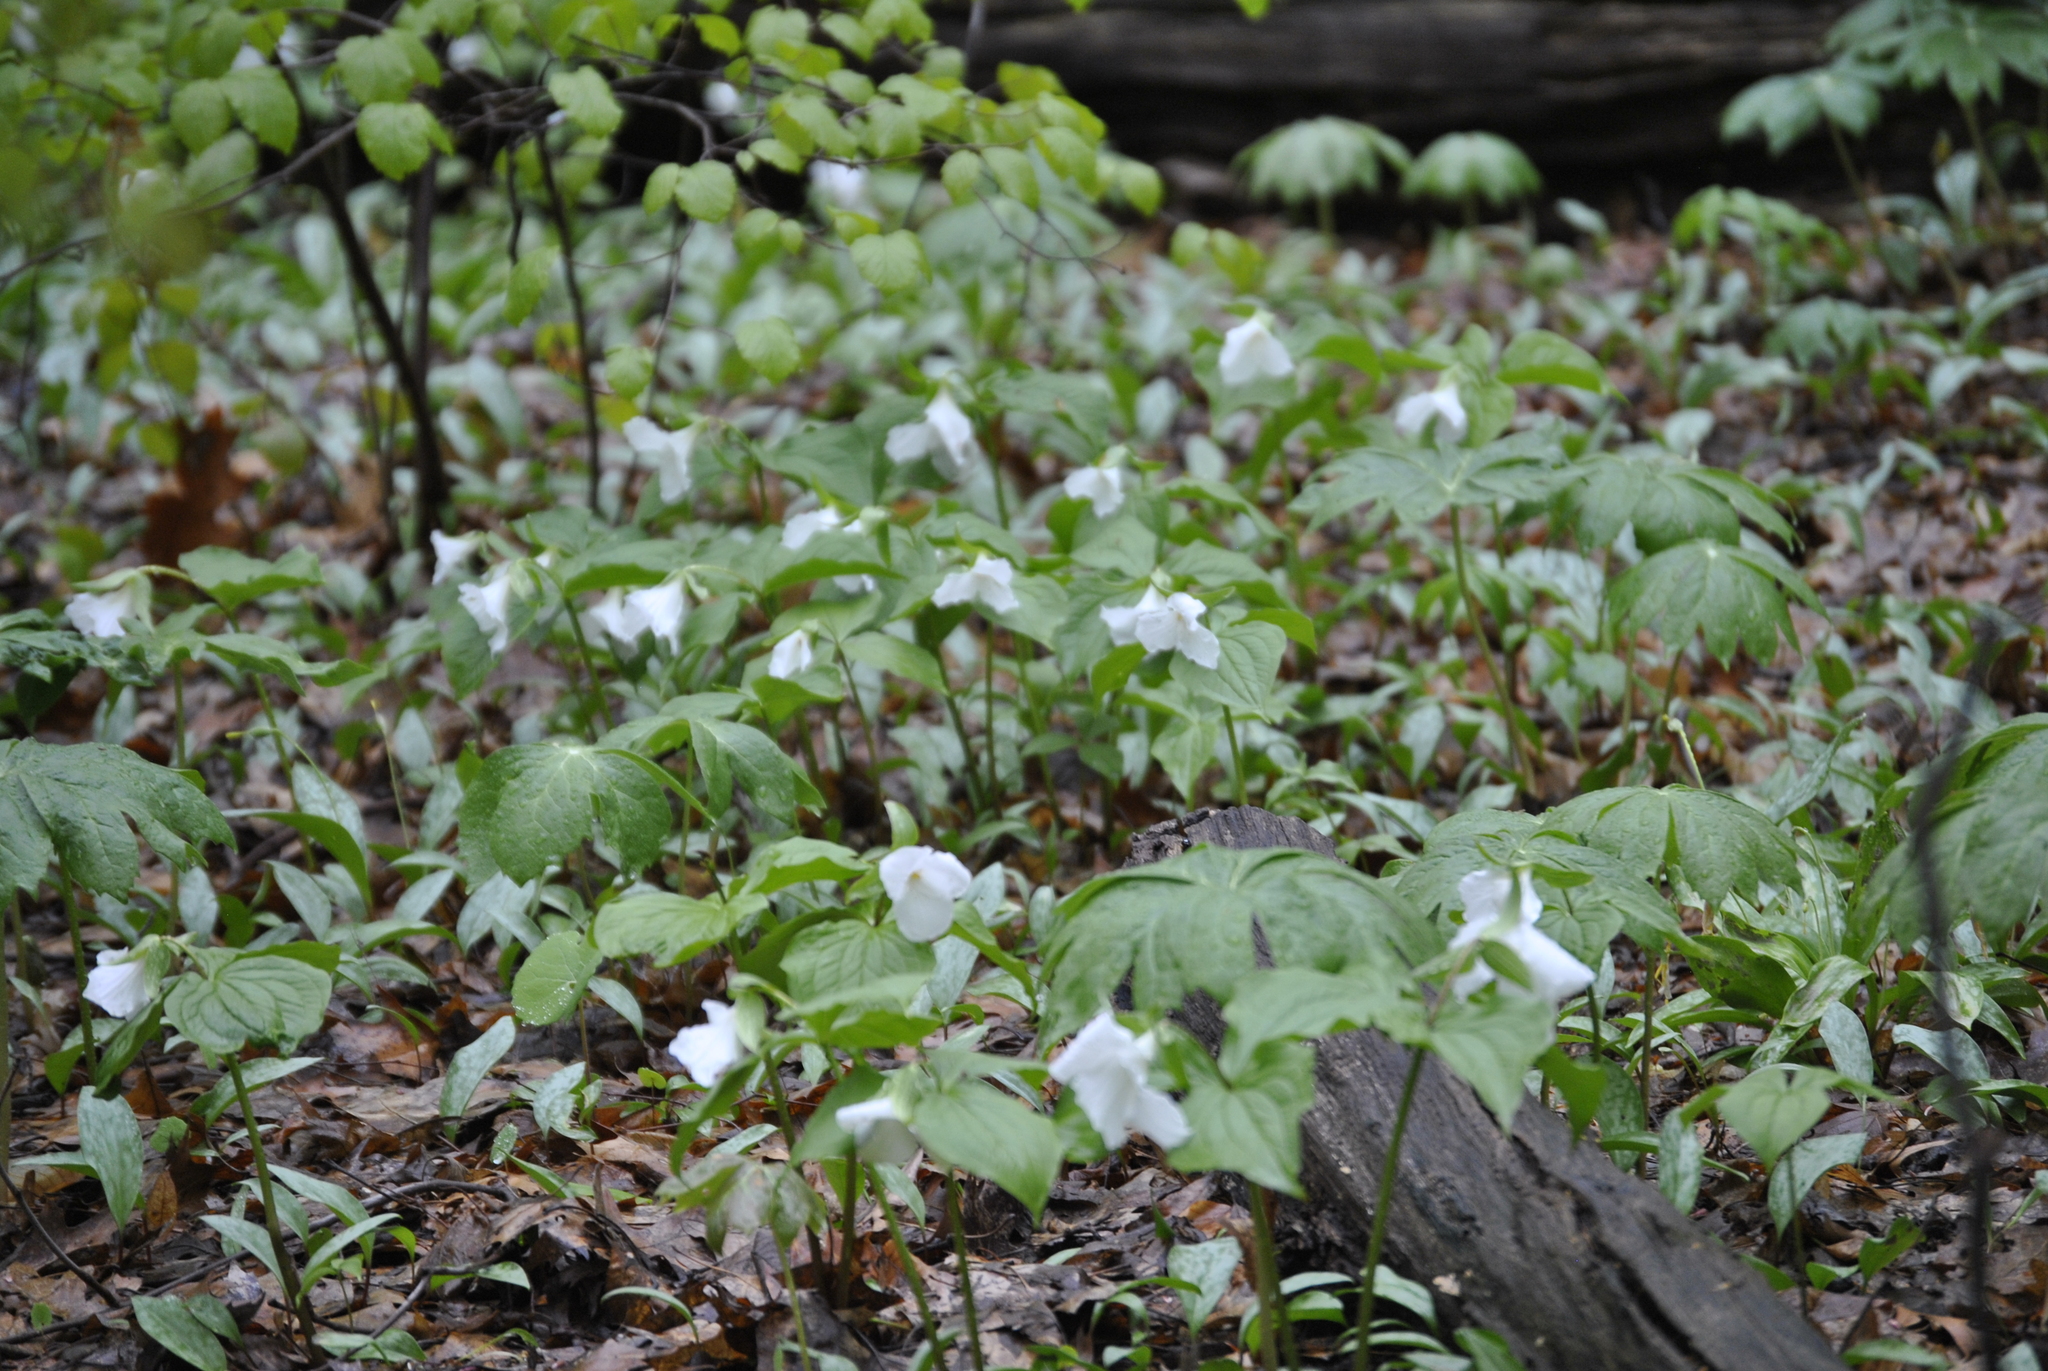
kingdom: Plantae
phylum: Tracheophyta
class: Liliopsida
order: Liliales
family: Melanthiaceae
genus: Trillium
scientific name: Trillium grandiflorum
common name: Great white trillium
